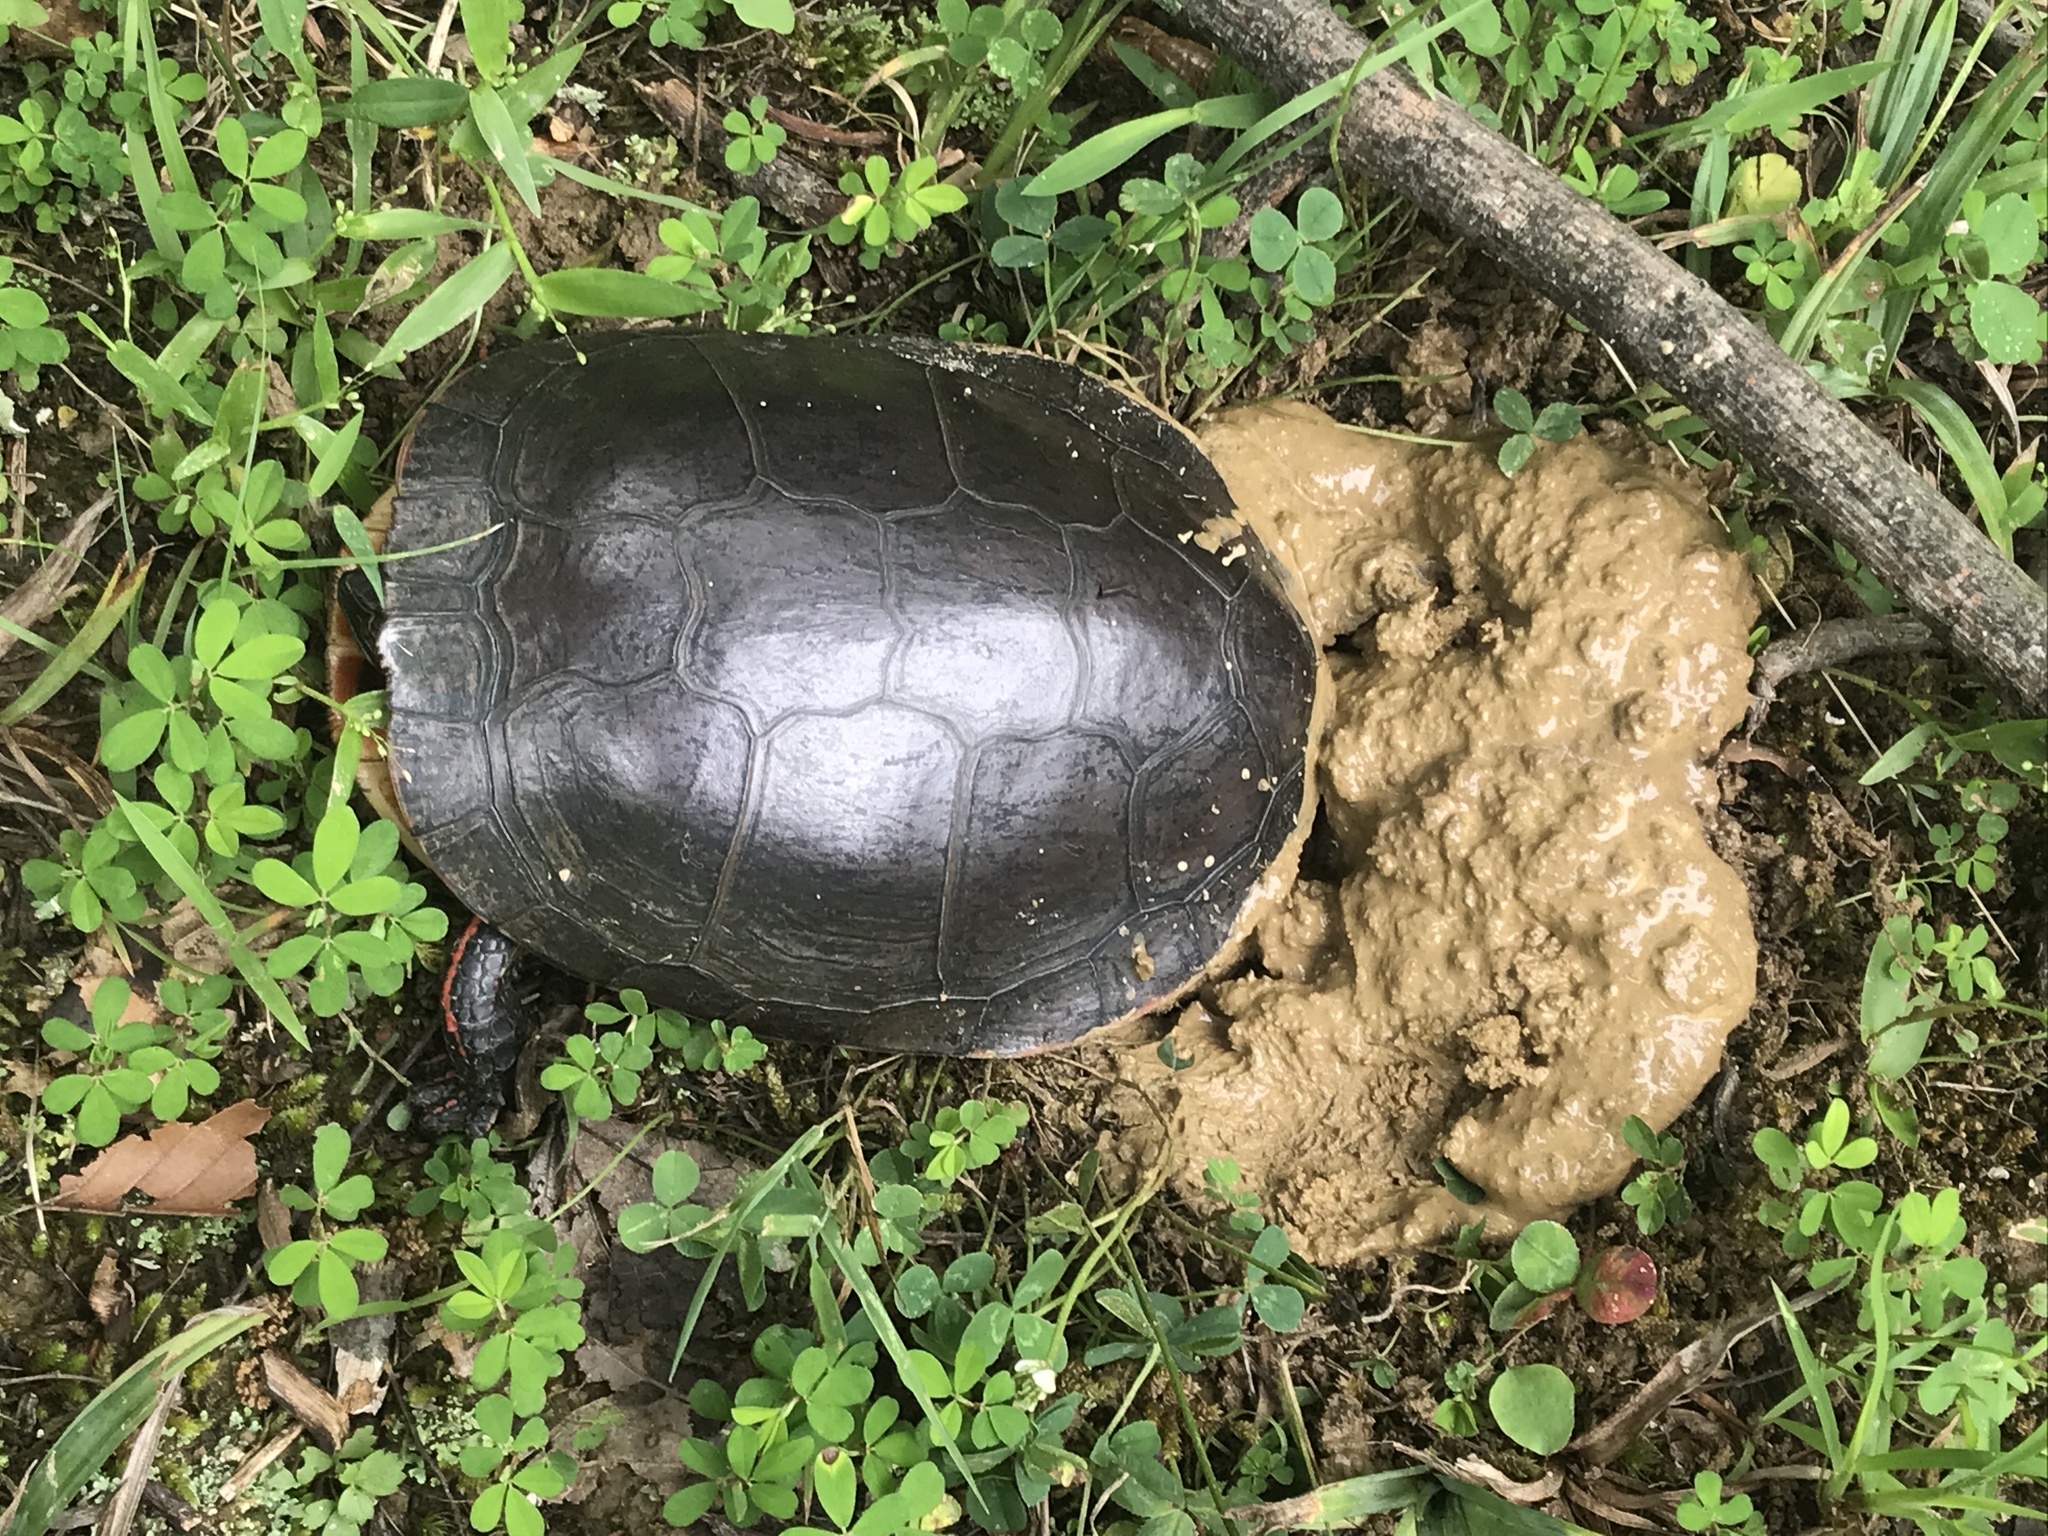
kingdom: Animalia
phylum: Chordata
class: Testudines
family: Emydidae
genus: Chrysemys
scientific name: Chrysemys picta
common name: Painted turtle
